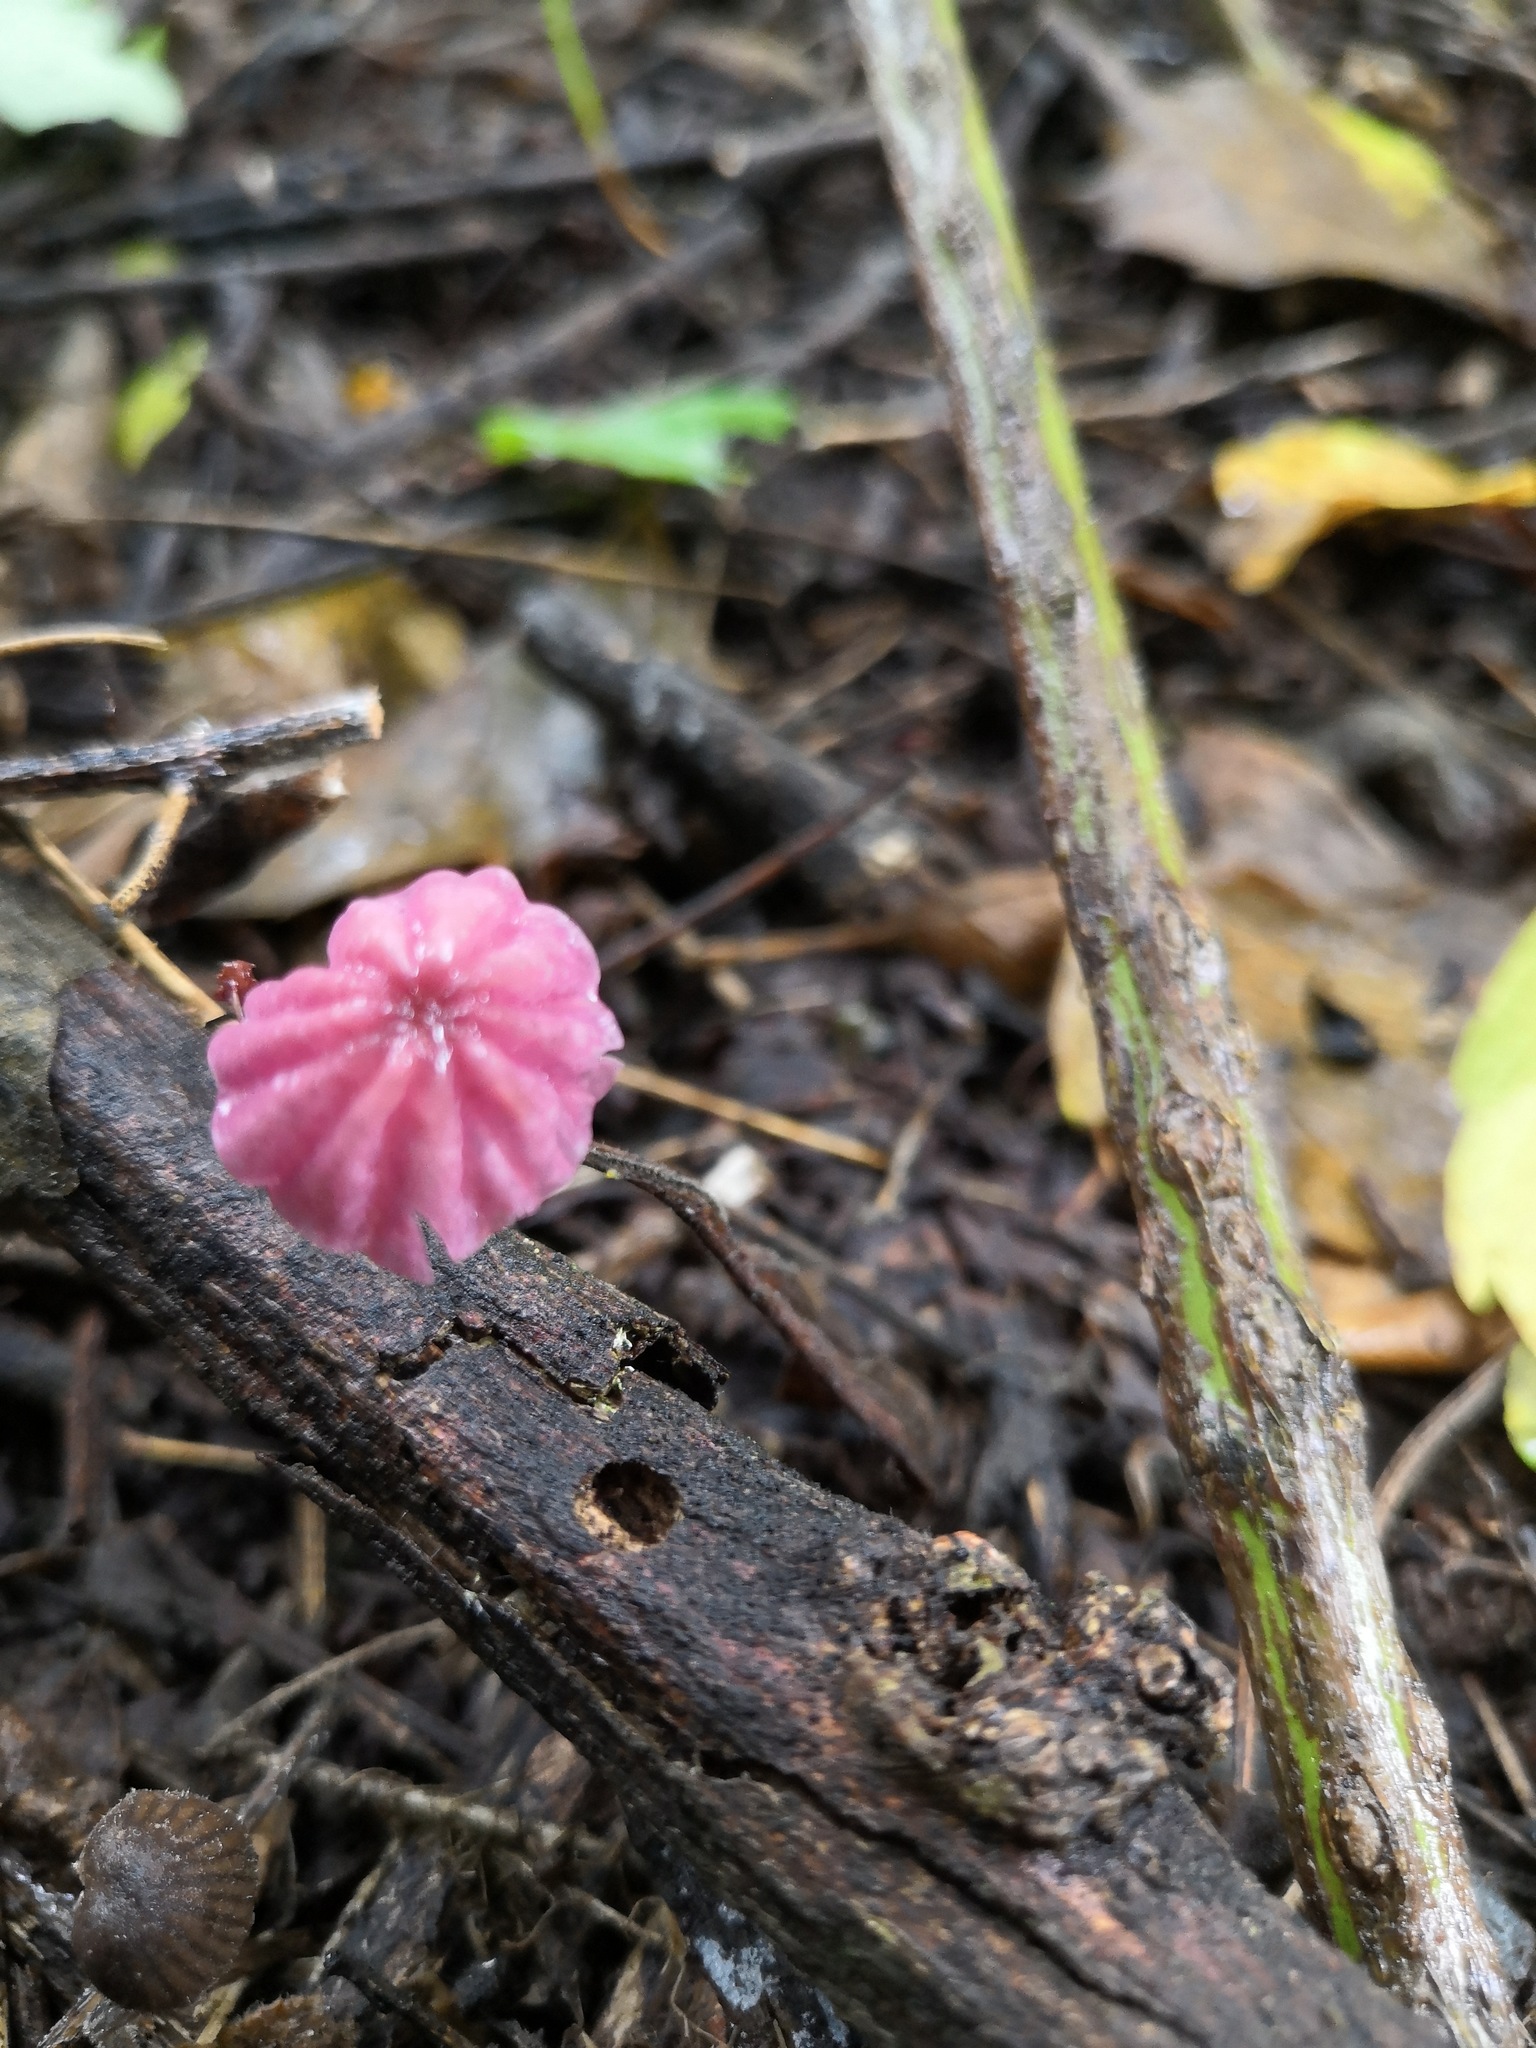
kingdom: Fungi
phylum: Basidiomycota
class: Agaricomycetes
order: Agaricales
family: Marasmiaceae
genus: Marasmius
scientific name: Marasmius haematocephalus
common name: Purple pinwheel
